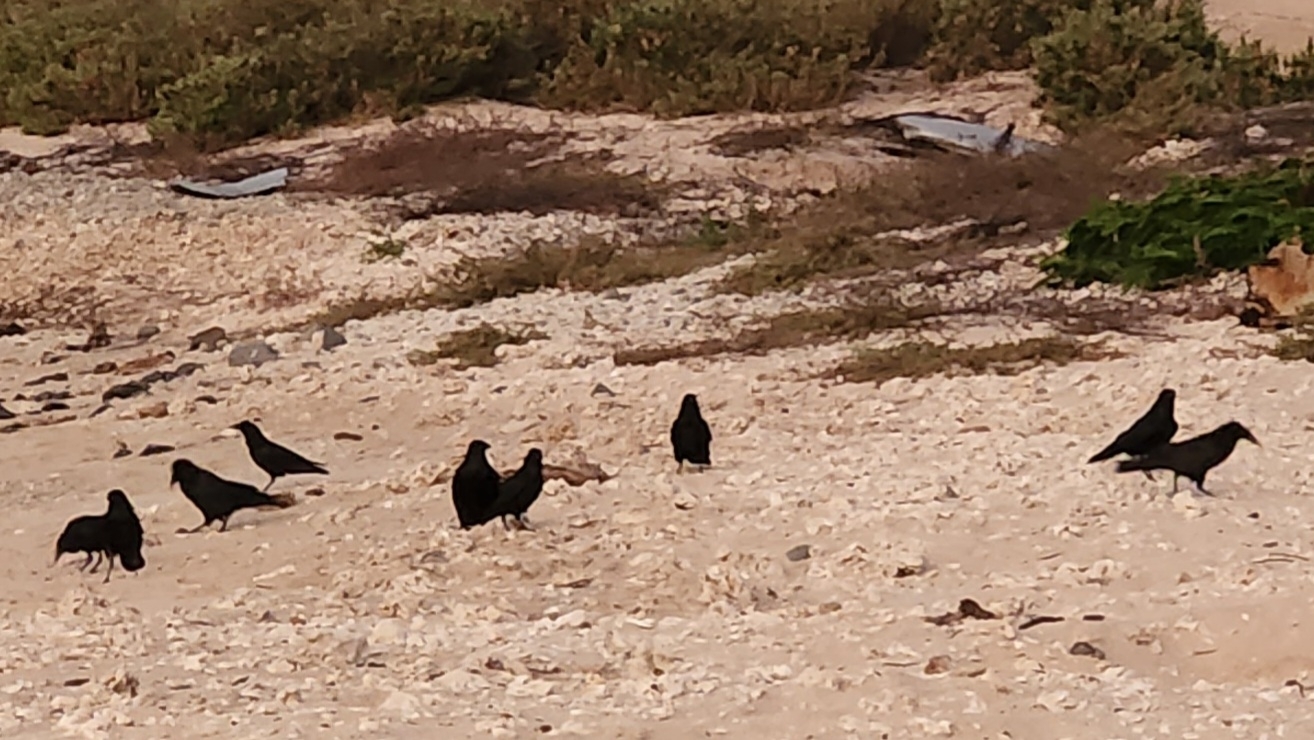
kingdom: Animalia
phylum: Chordata
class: Aves
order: Passeriformes
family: Corvidae
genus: Corvus
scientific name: Corvus corax
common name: Common raven
